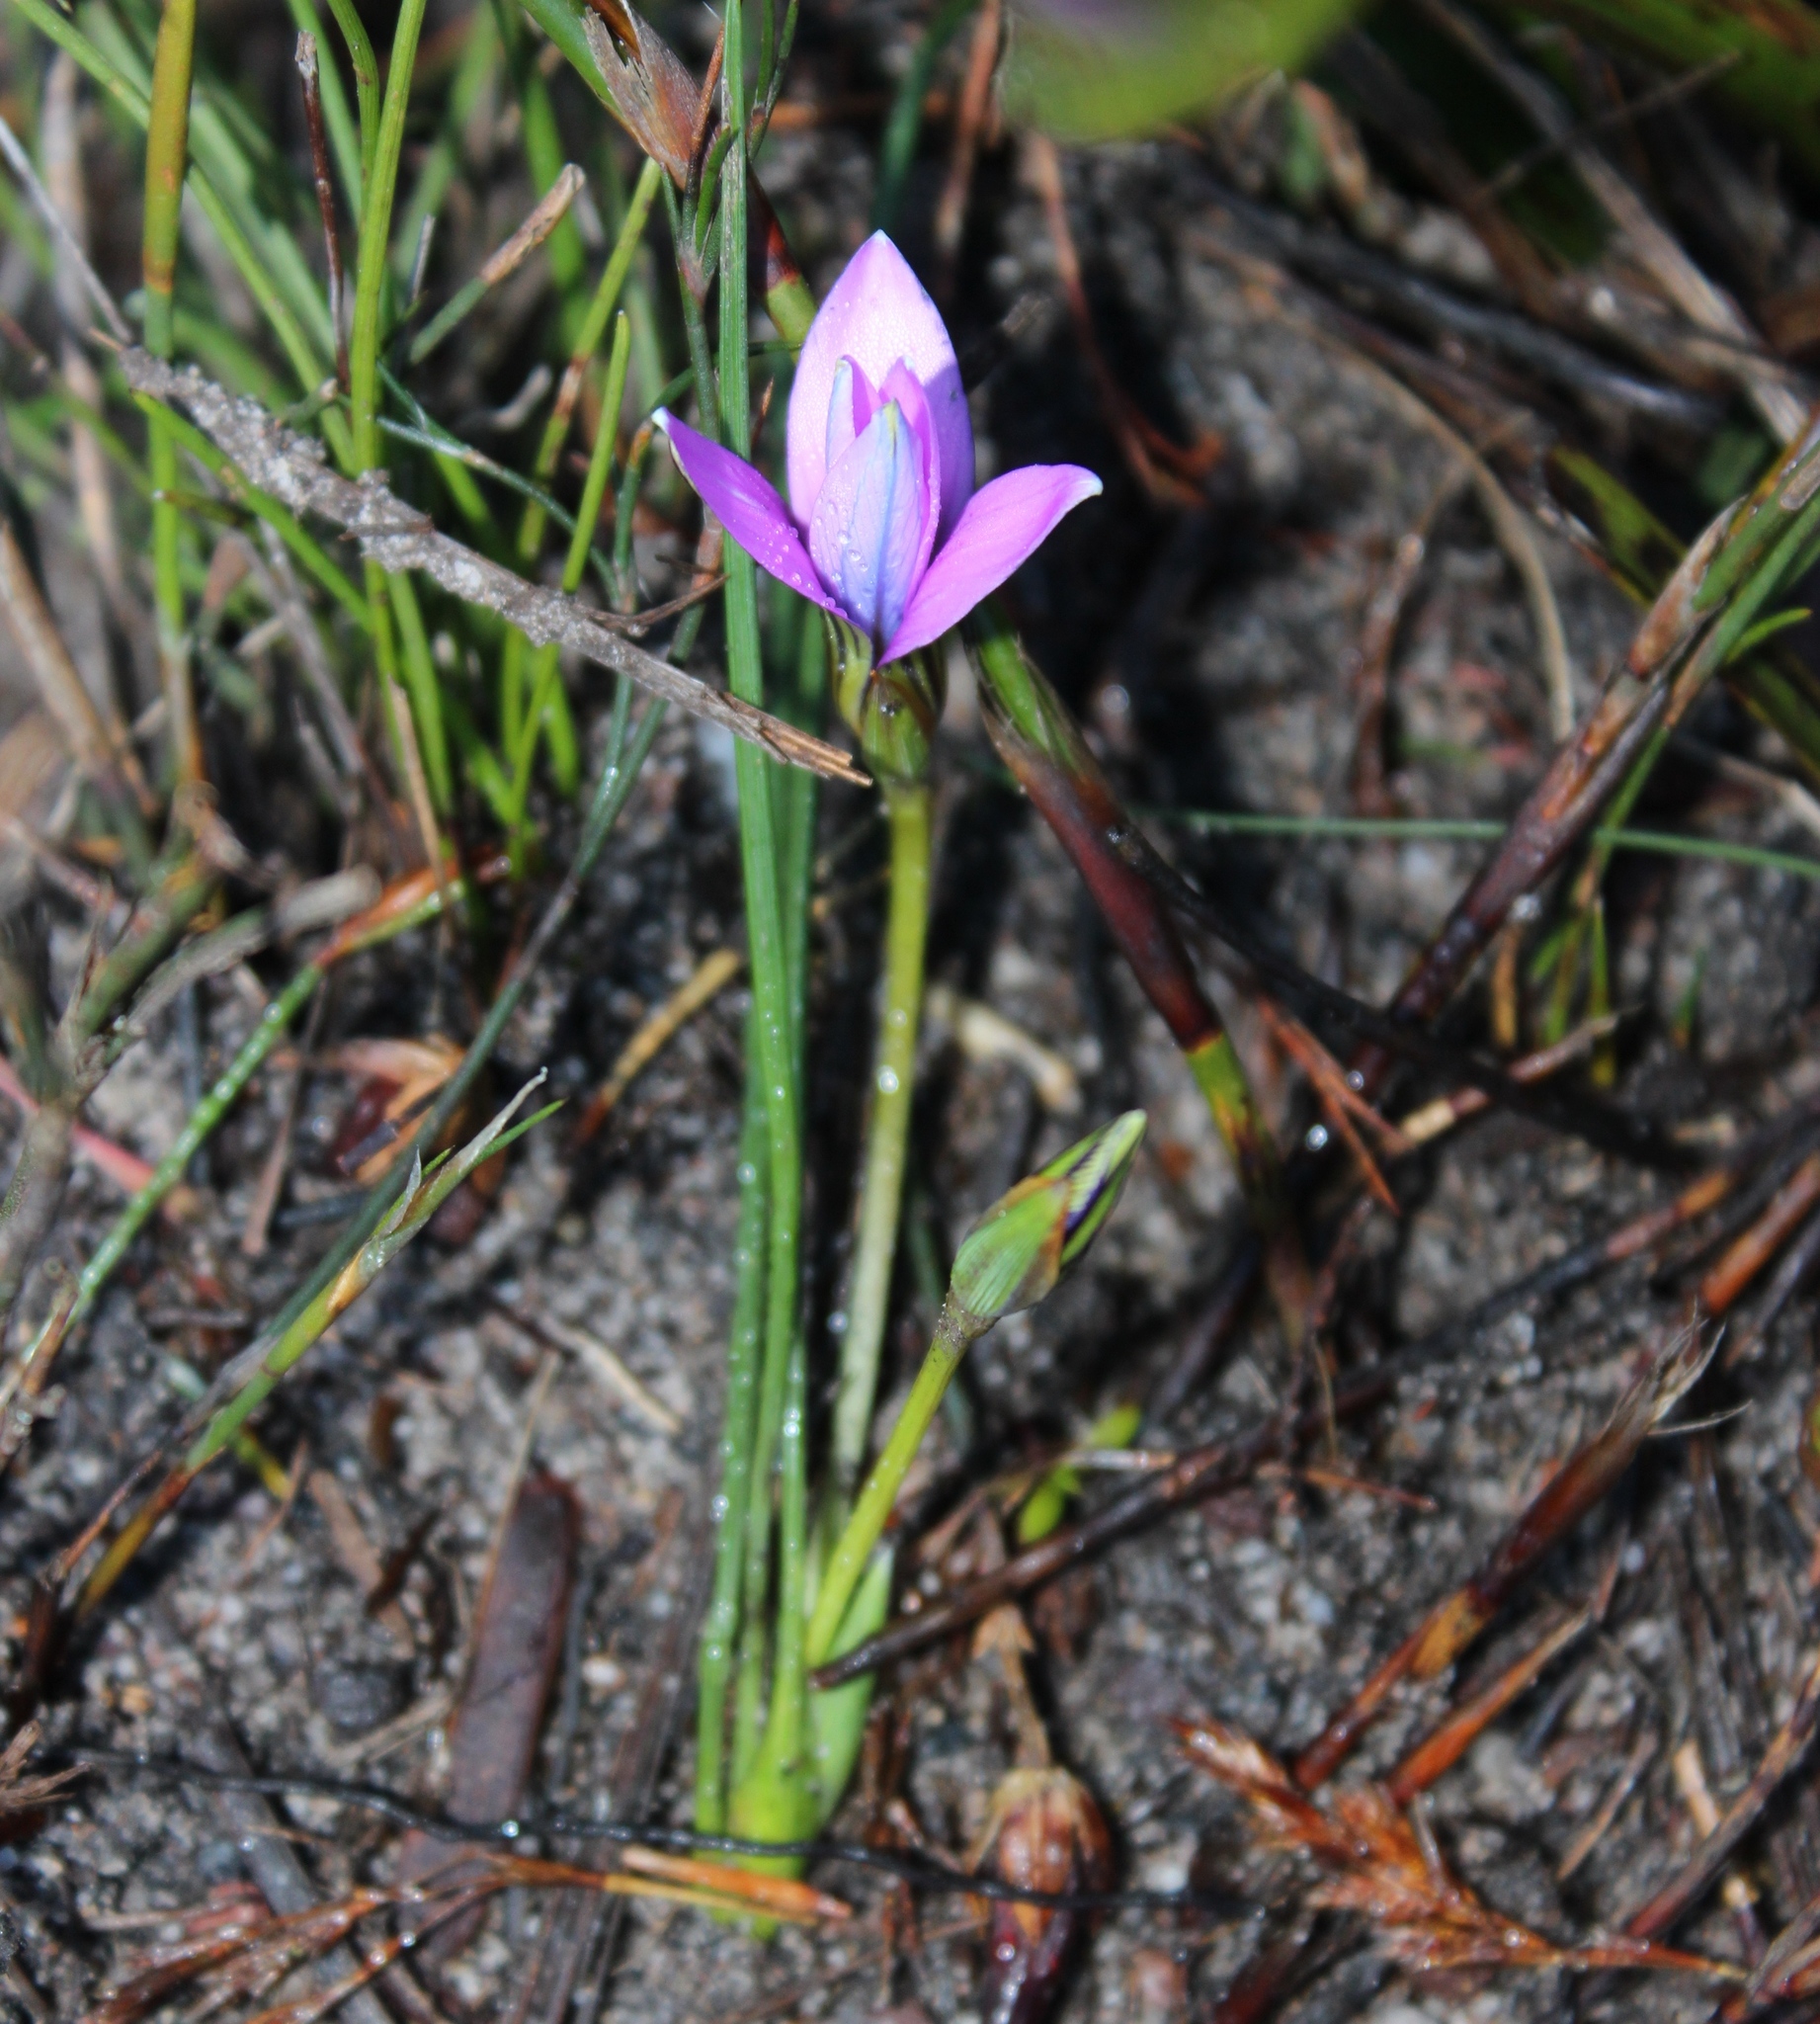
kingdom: Plantae
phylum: Tracheophyta
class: Liliopsida
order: Asparagales
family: Iridaceae
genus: Romulea
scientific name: Romulea rosea
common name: Oniongrass
